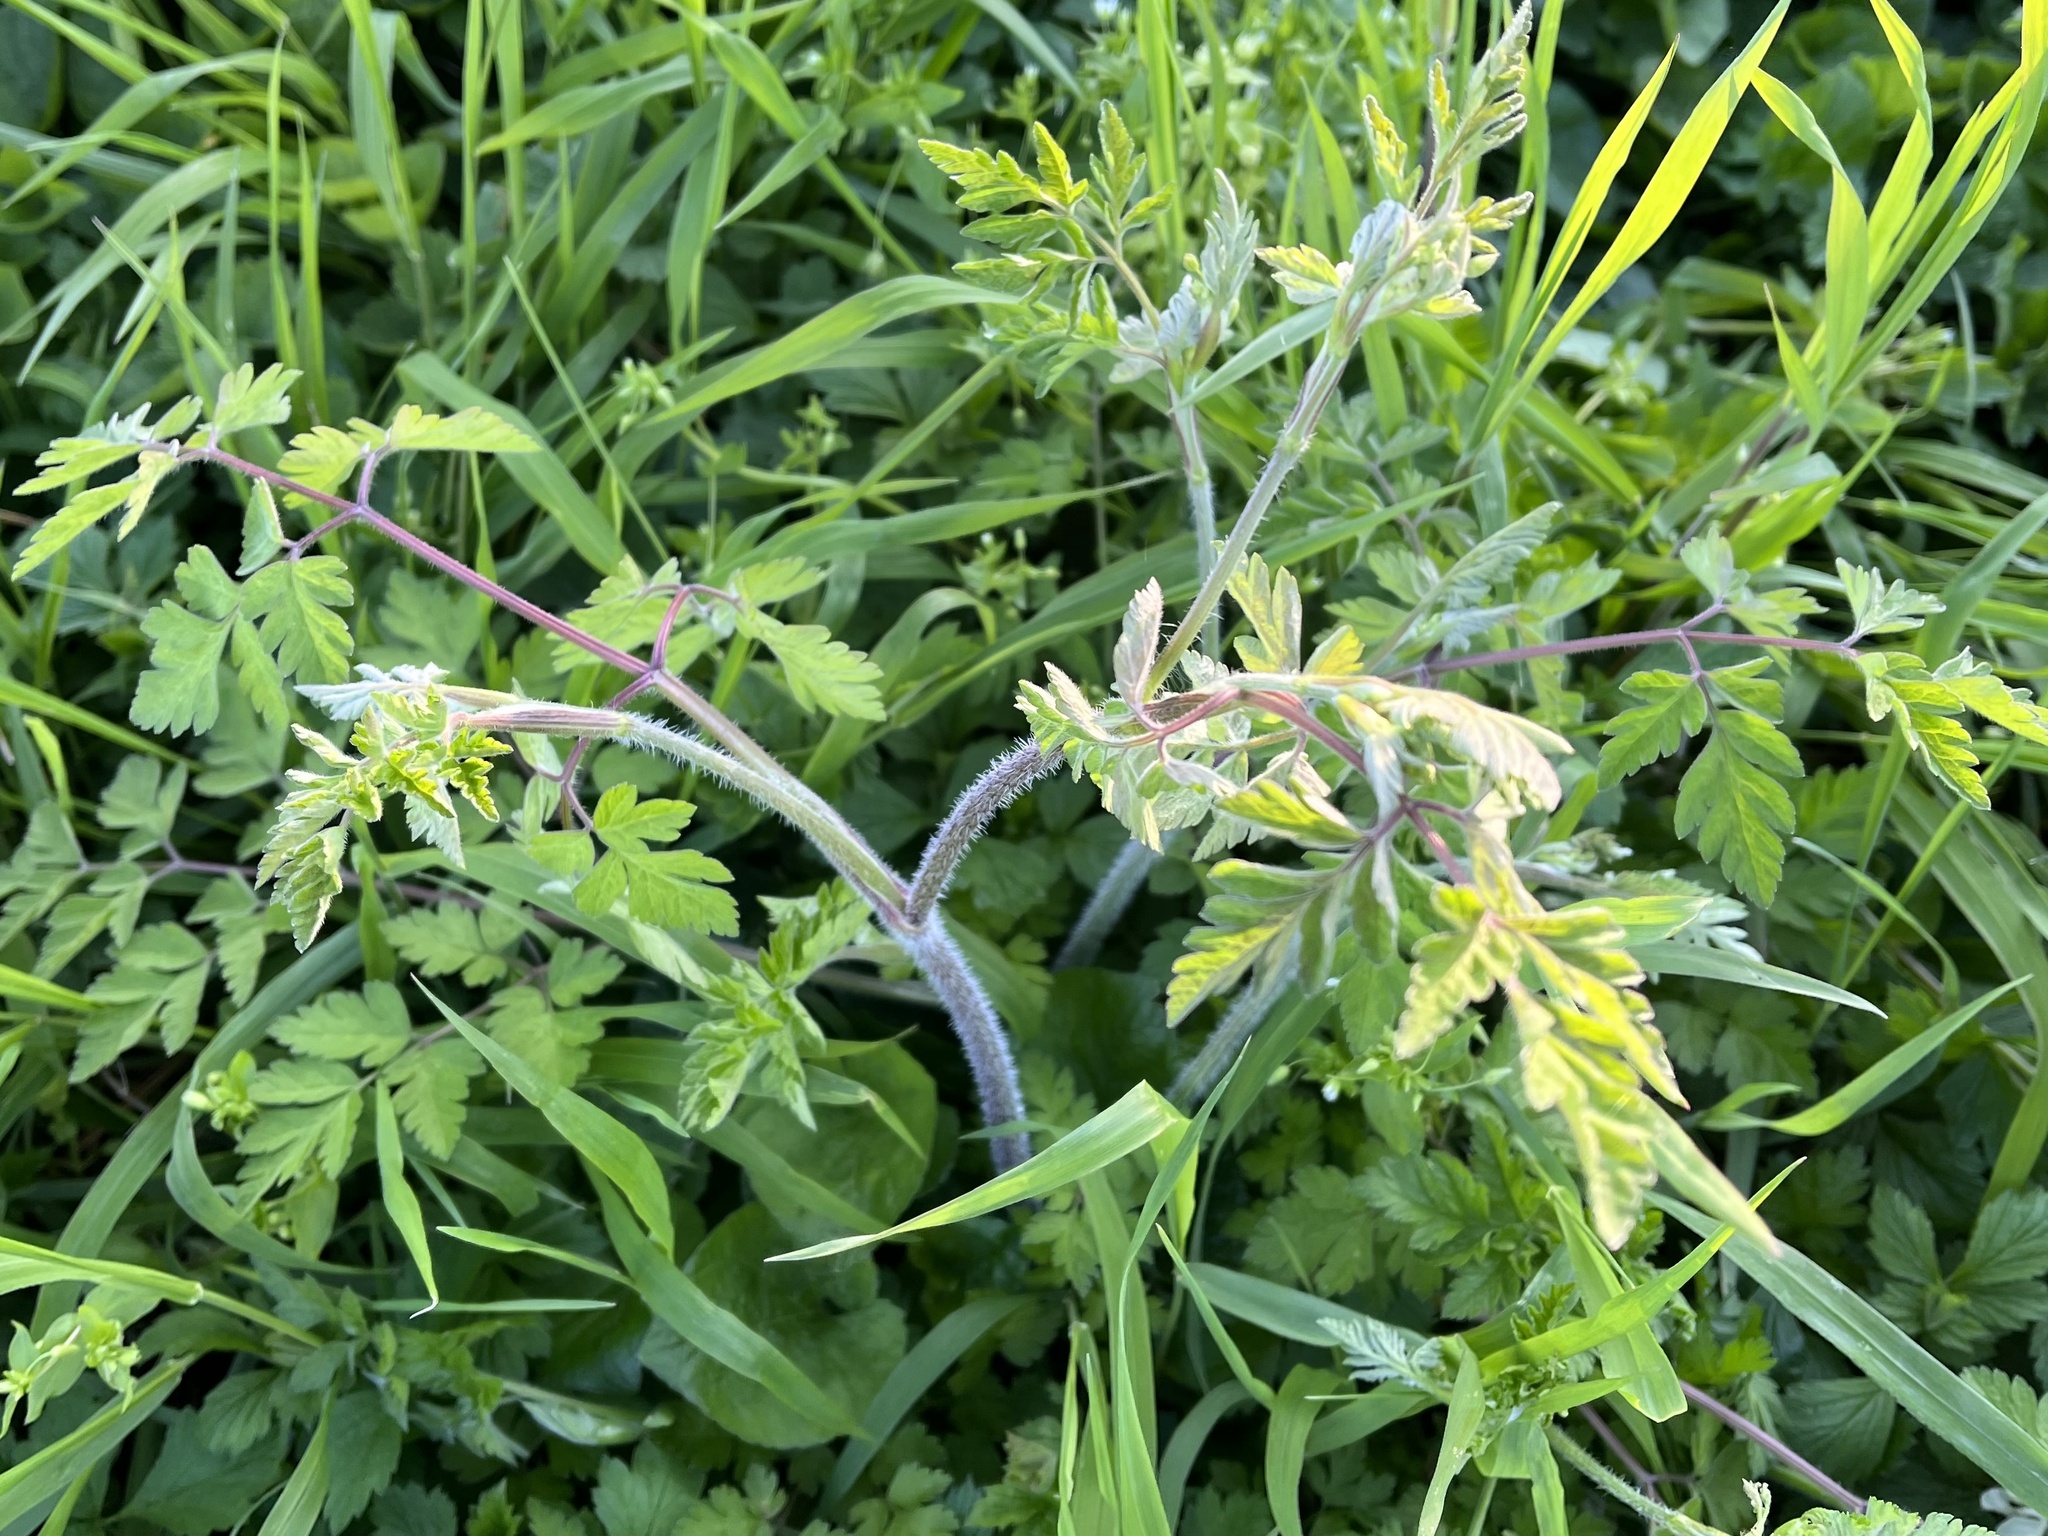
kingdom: Plantae
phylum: Tracheophyta
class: Magnoliopsida
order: Apiales
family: Apiaceae
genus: Chaerophyllum
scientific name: Chaerophyllum temulum
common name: Rough chervil
